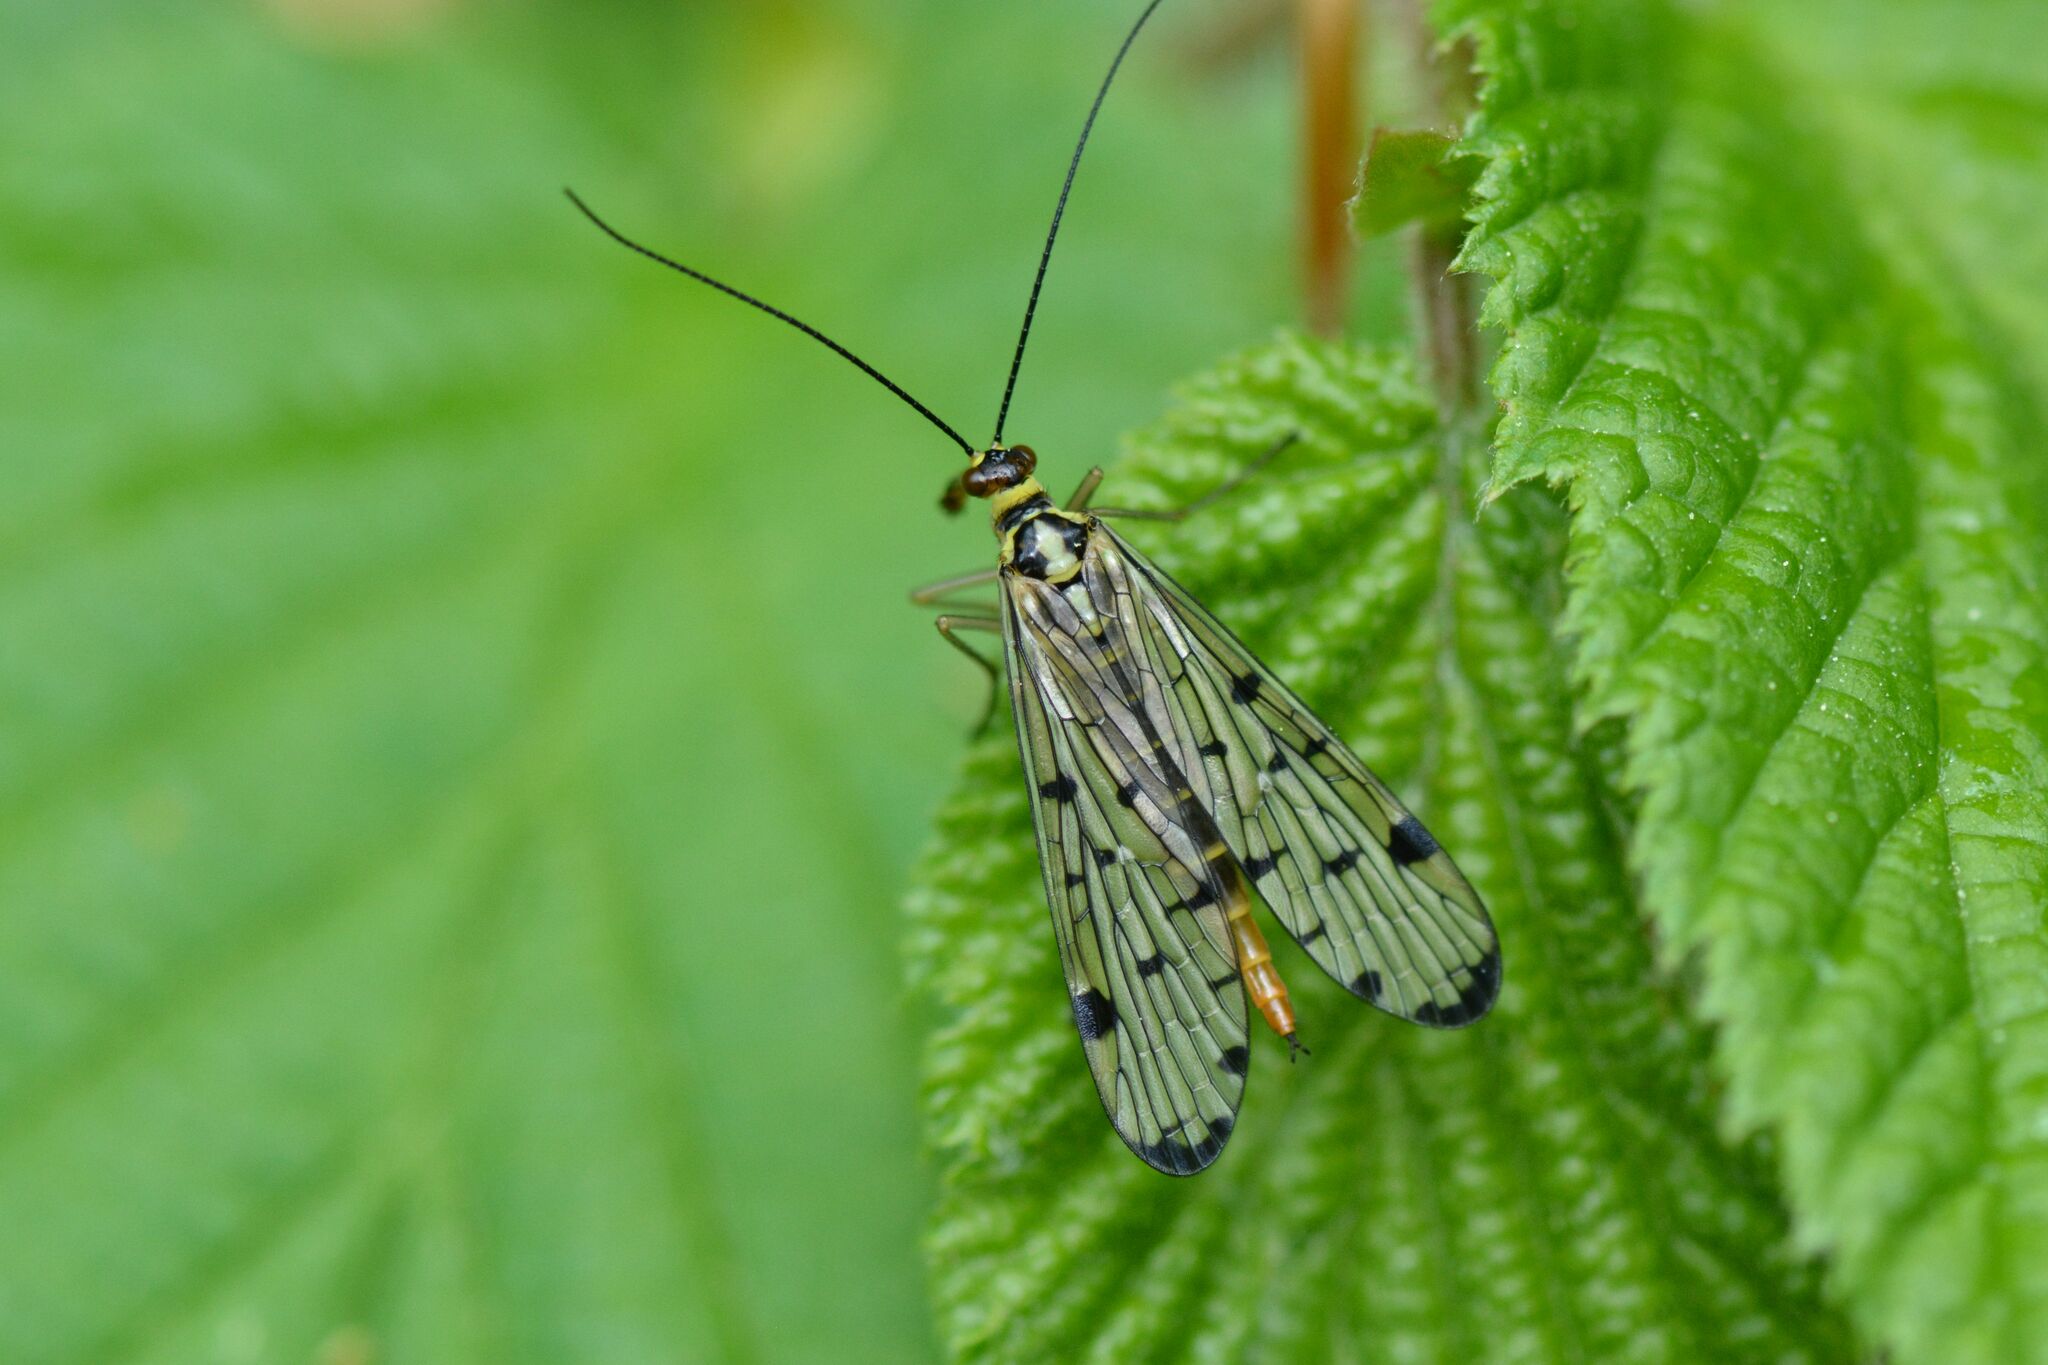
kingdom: Animalia
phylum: Arthropoda
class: Insecta
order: Mecoptera
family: Panorpidae
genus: Panorpa
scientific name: Panorpa germanica
